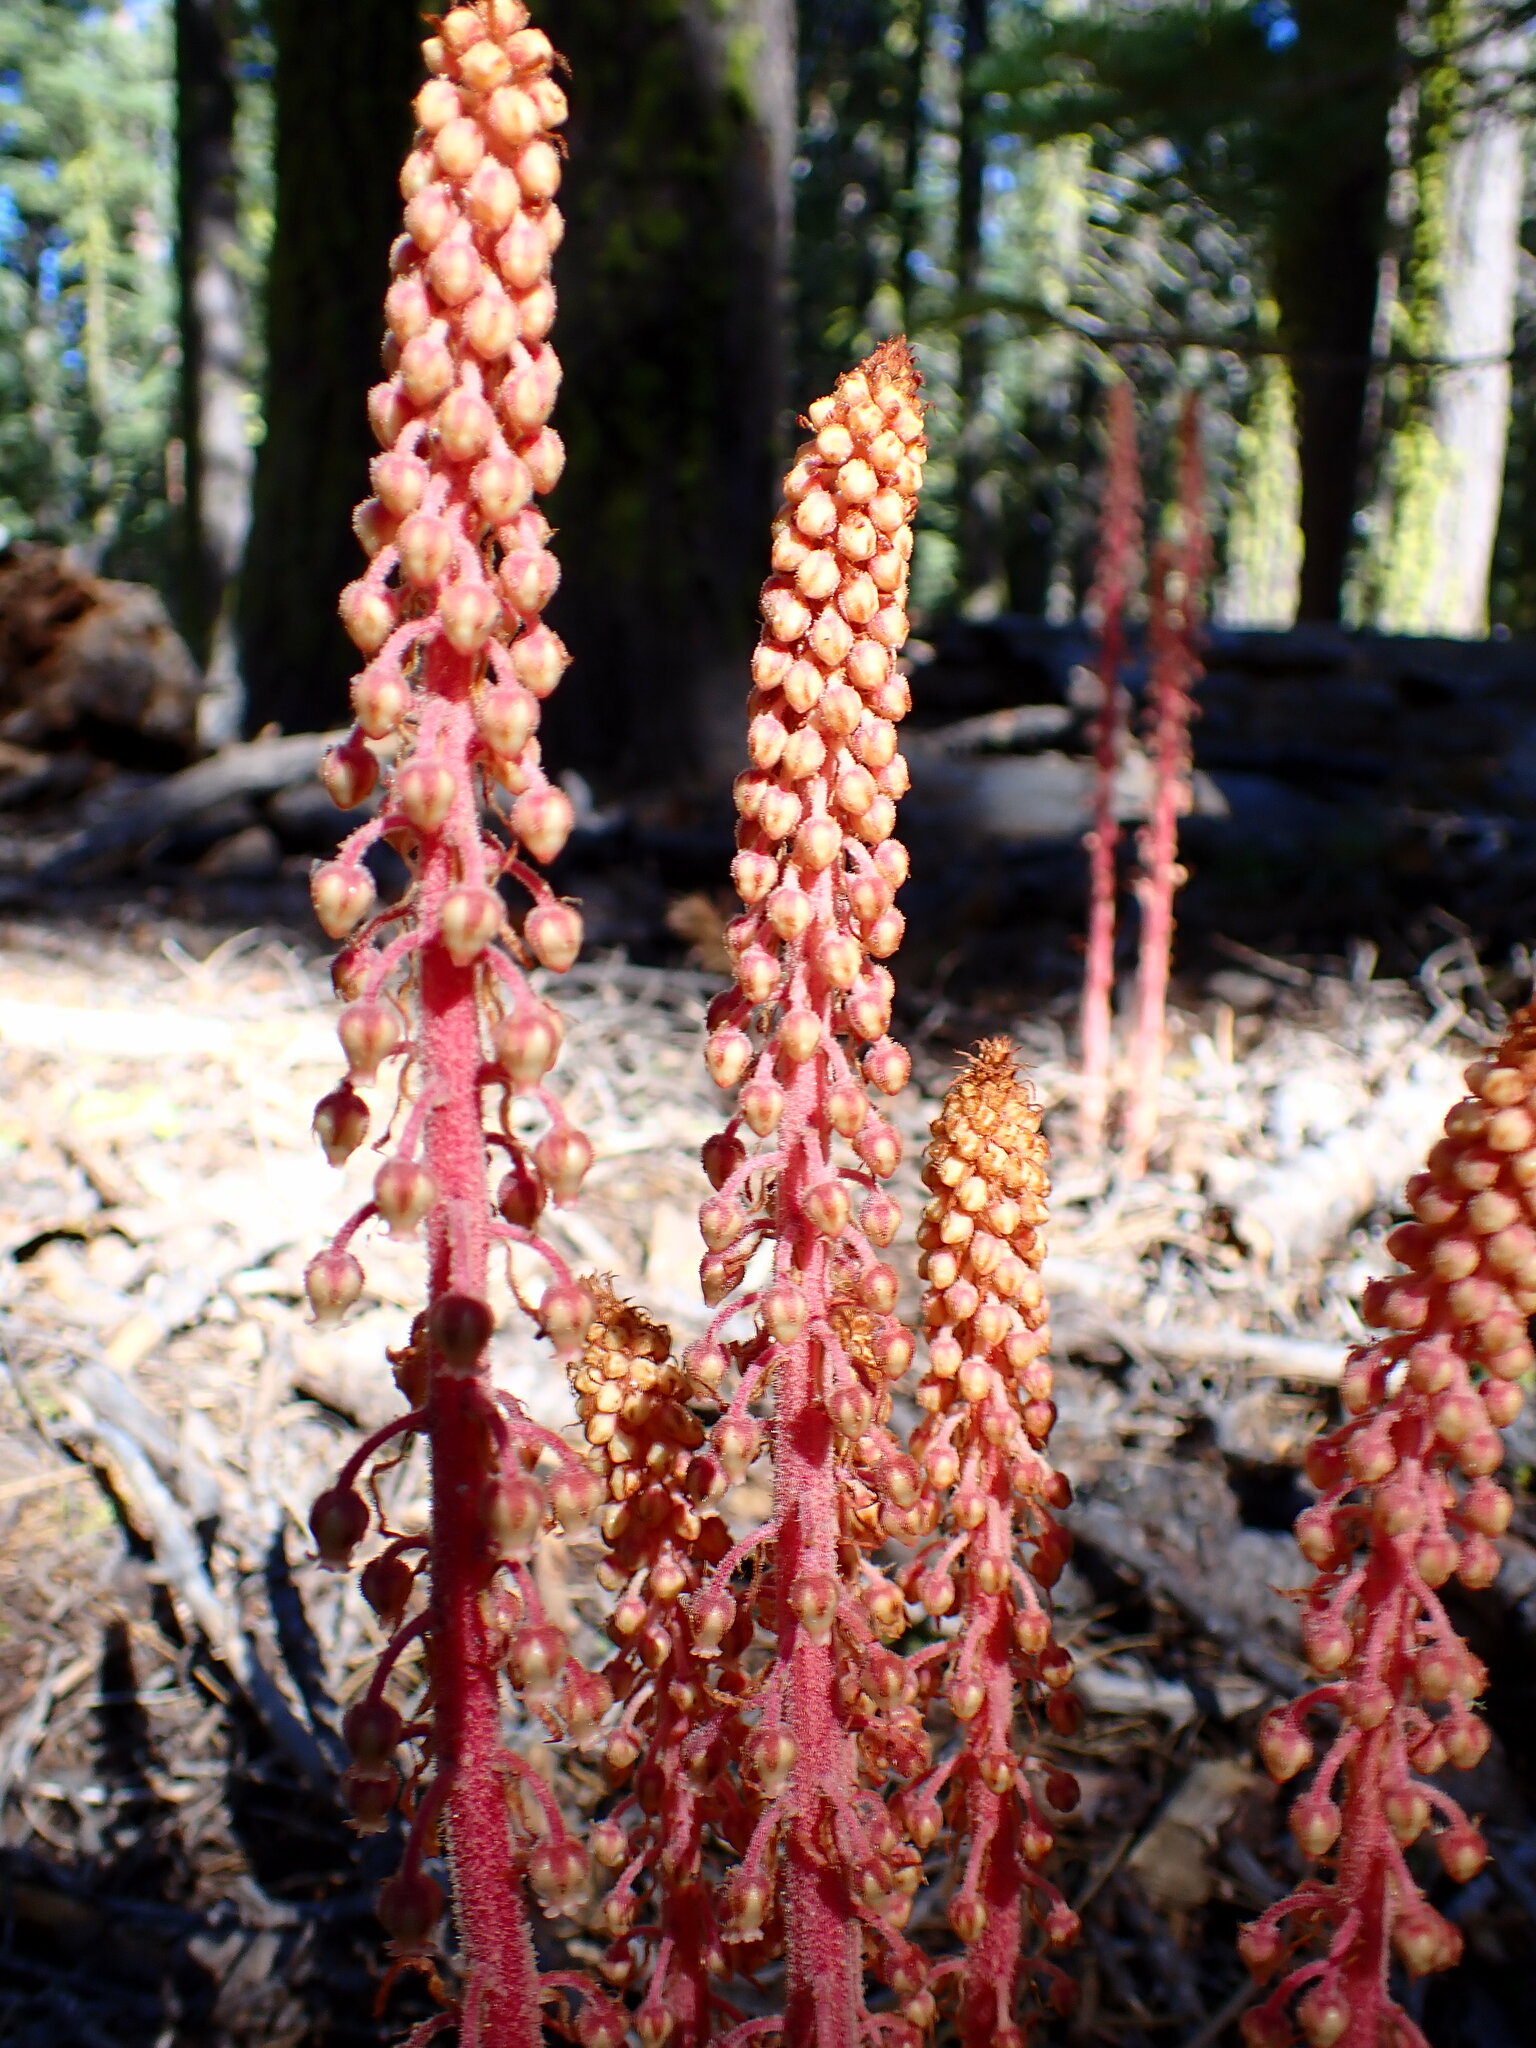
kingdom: Plantae
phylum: Tracheophyta
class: Magnoliopsida
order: Ericales
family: Ericaceae
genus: Pterospora
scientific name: Pterospora andromedea
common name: Giant bird's-nest
